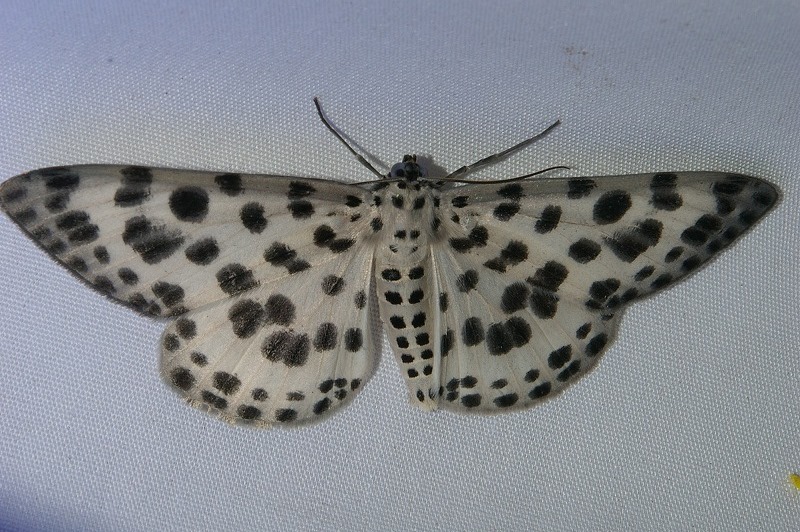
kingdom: Animalia
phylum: Arthropoda
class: Insecta
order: Lepidoptera
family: Geometridae
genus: Antipercnia
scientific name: Antipercnia albinigrata
